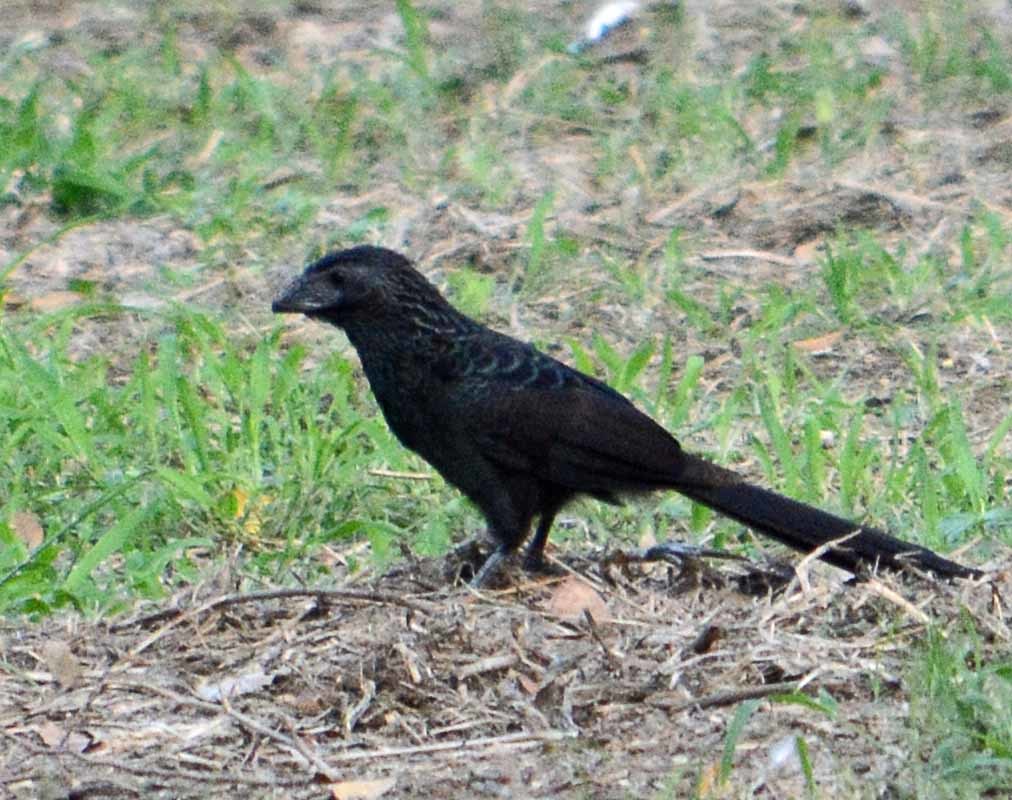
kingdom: Animalia
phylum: Chordata
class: Aves
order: Cuculiformes
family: Cuculidae
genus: Crotophaga
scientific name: Crotophaga sulcirostris
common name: Groove-billed ani
